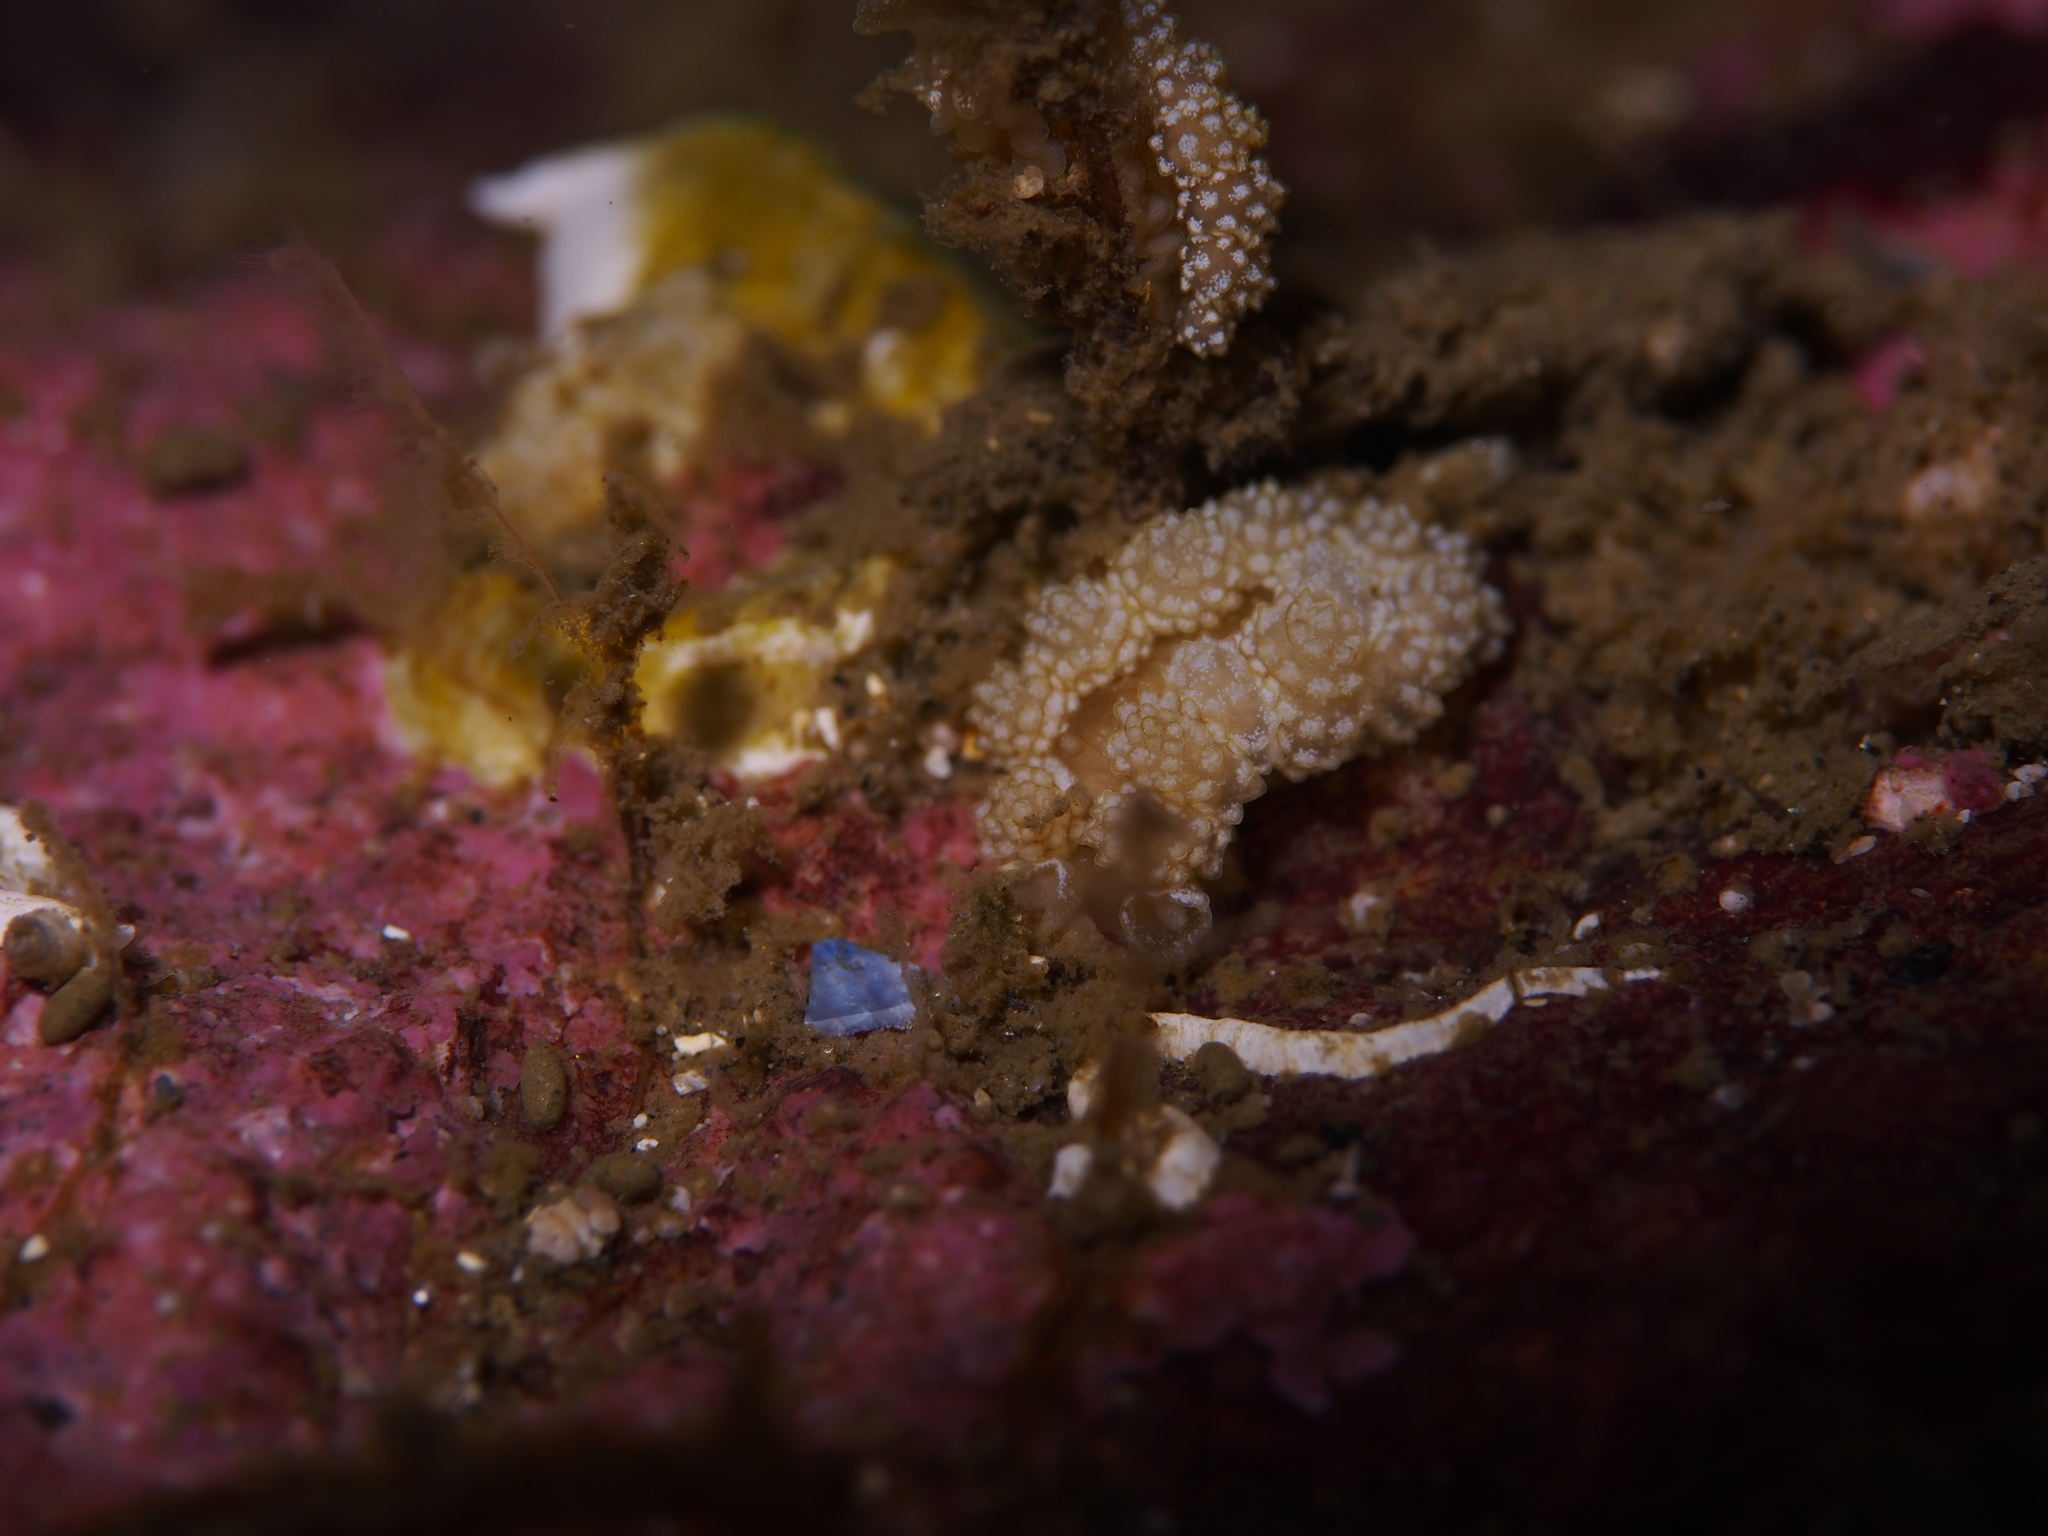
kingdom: Animalia
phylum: Mollusca
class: Gastropoda
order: Nudibranchia
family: Dotidae
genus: Doto
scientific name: Doto fragilis
